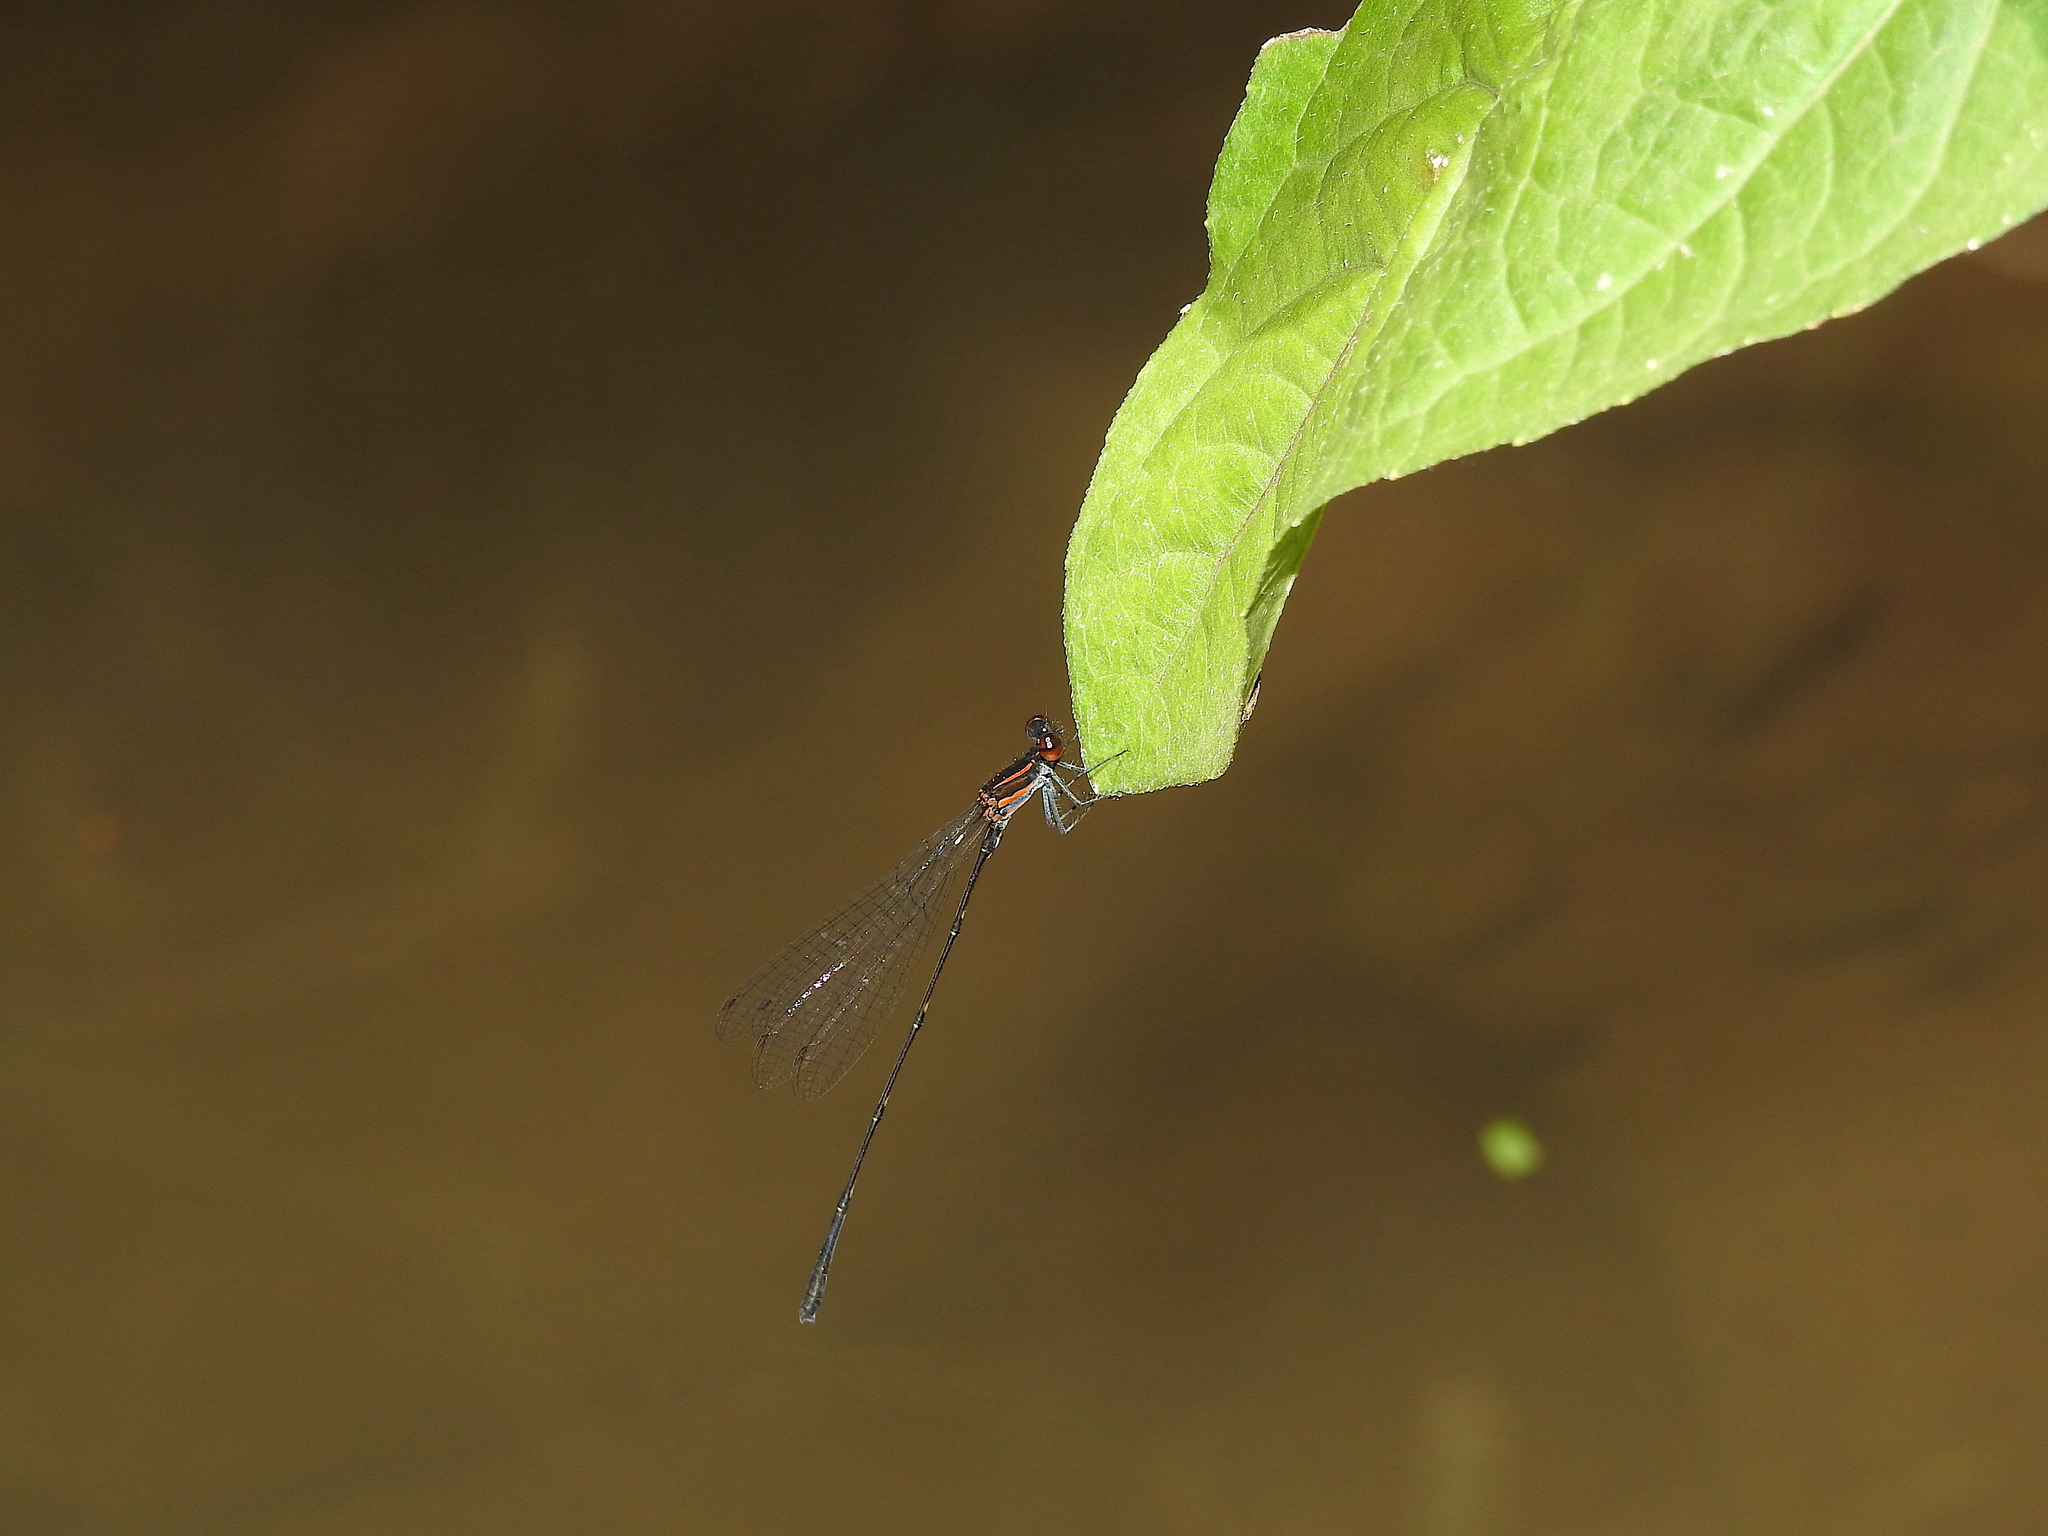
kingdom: Animalia
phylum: Arthropoda
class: Insecta
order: Odonata
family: Platycnemididae
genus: Prodasineura
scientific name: Prodasineura verticalis
